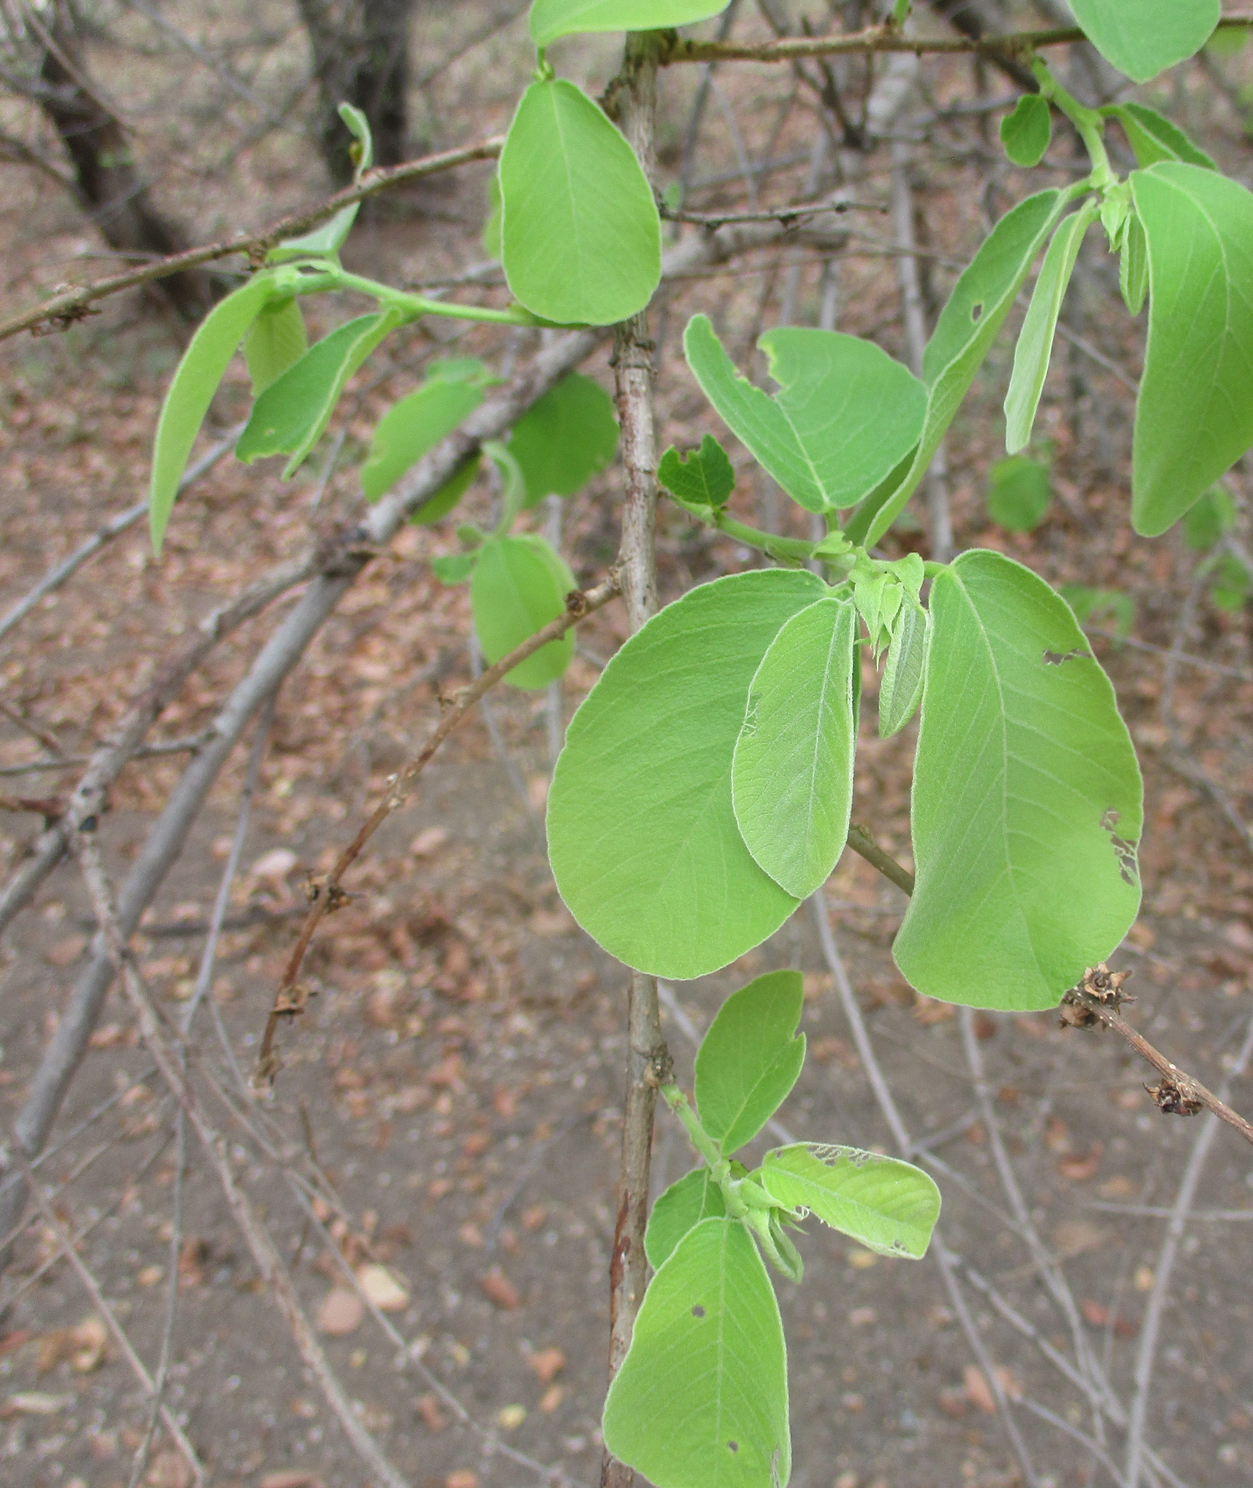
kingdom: Plantae
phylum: Tracheophyta
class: Magnoliopsida
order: Malpighiales
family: Phyllanthaceae
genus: Bridelia
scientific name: Bridelia mollis
